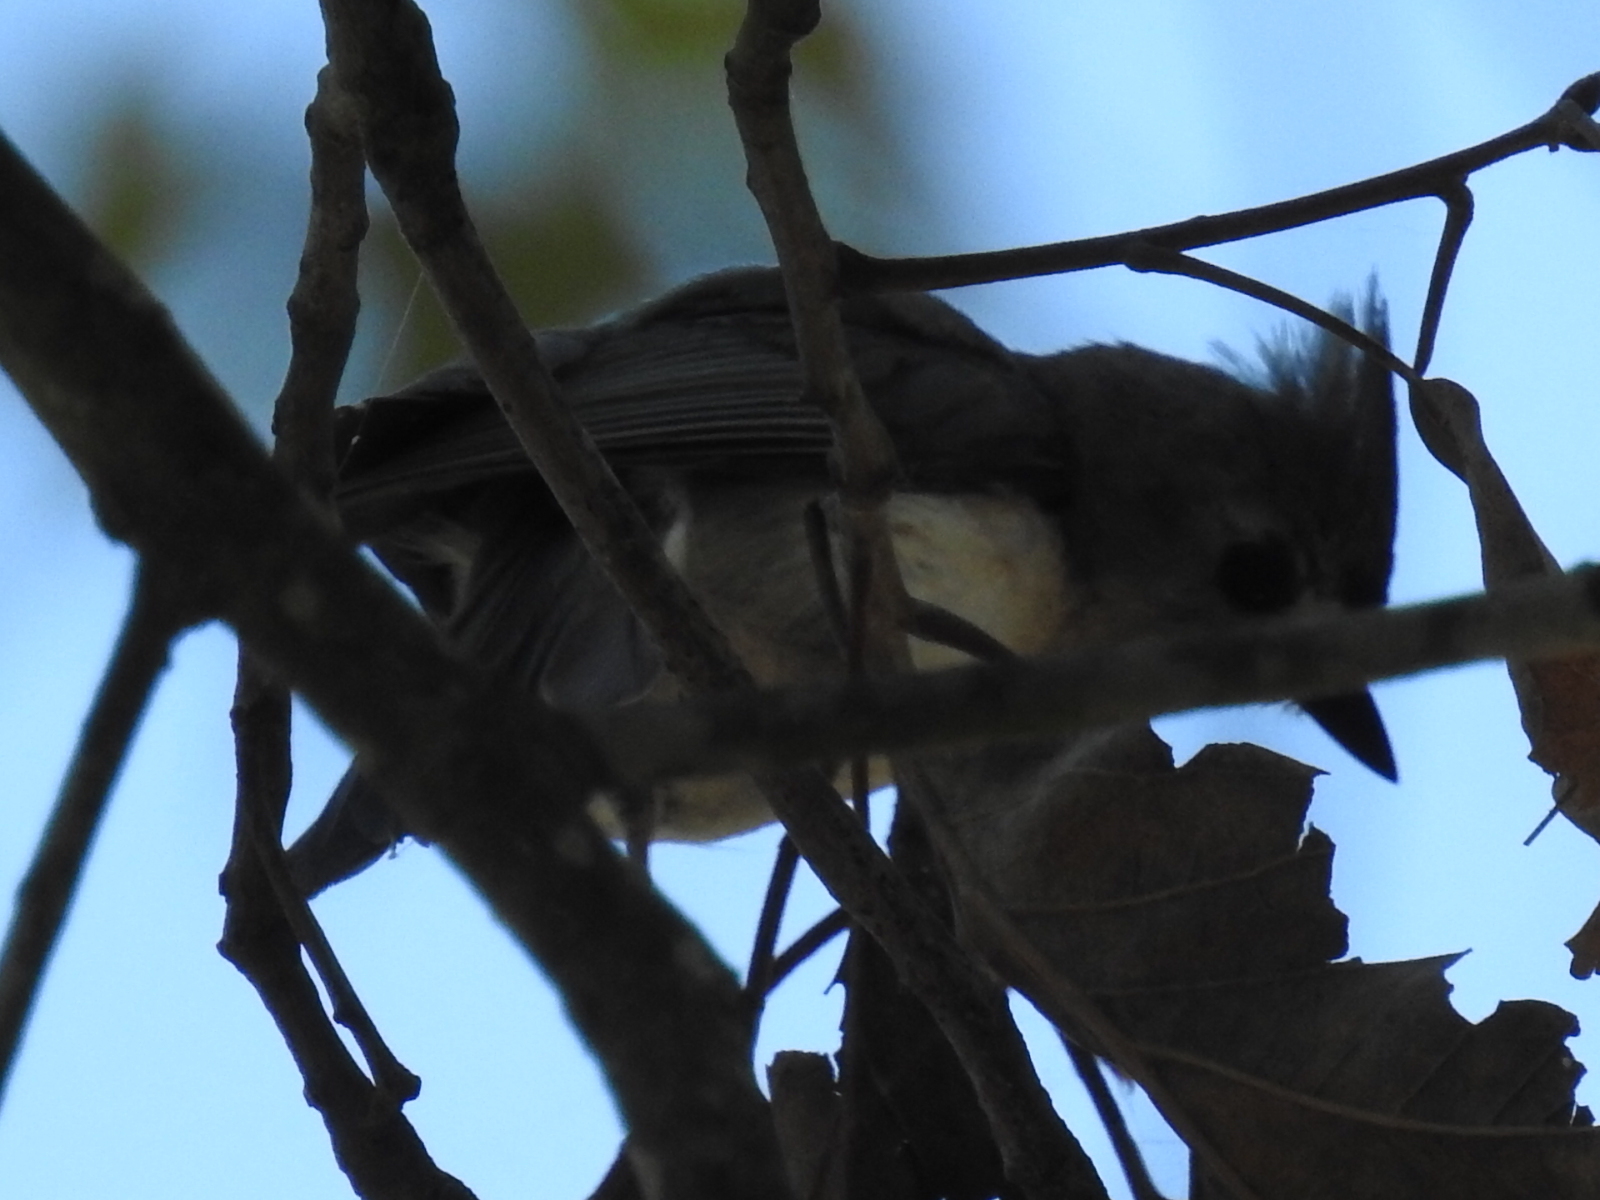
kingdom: Animalia
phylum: Chordata
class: Aves
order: Passeriformes
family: Paridae
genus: Baeolophus
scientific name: Baeolophus bicolor
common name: Tufted titmouse
